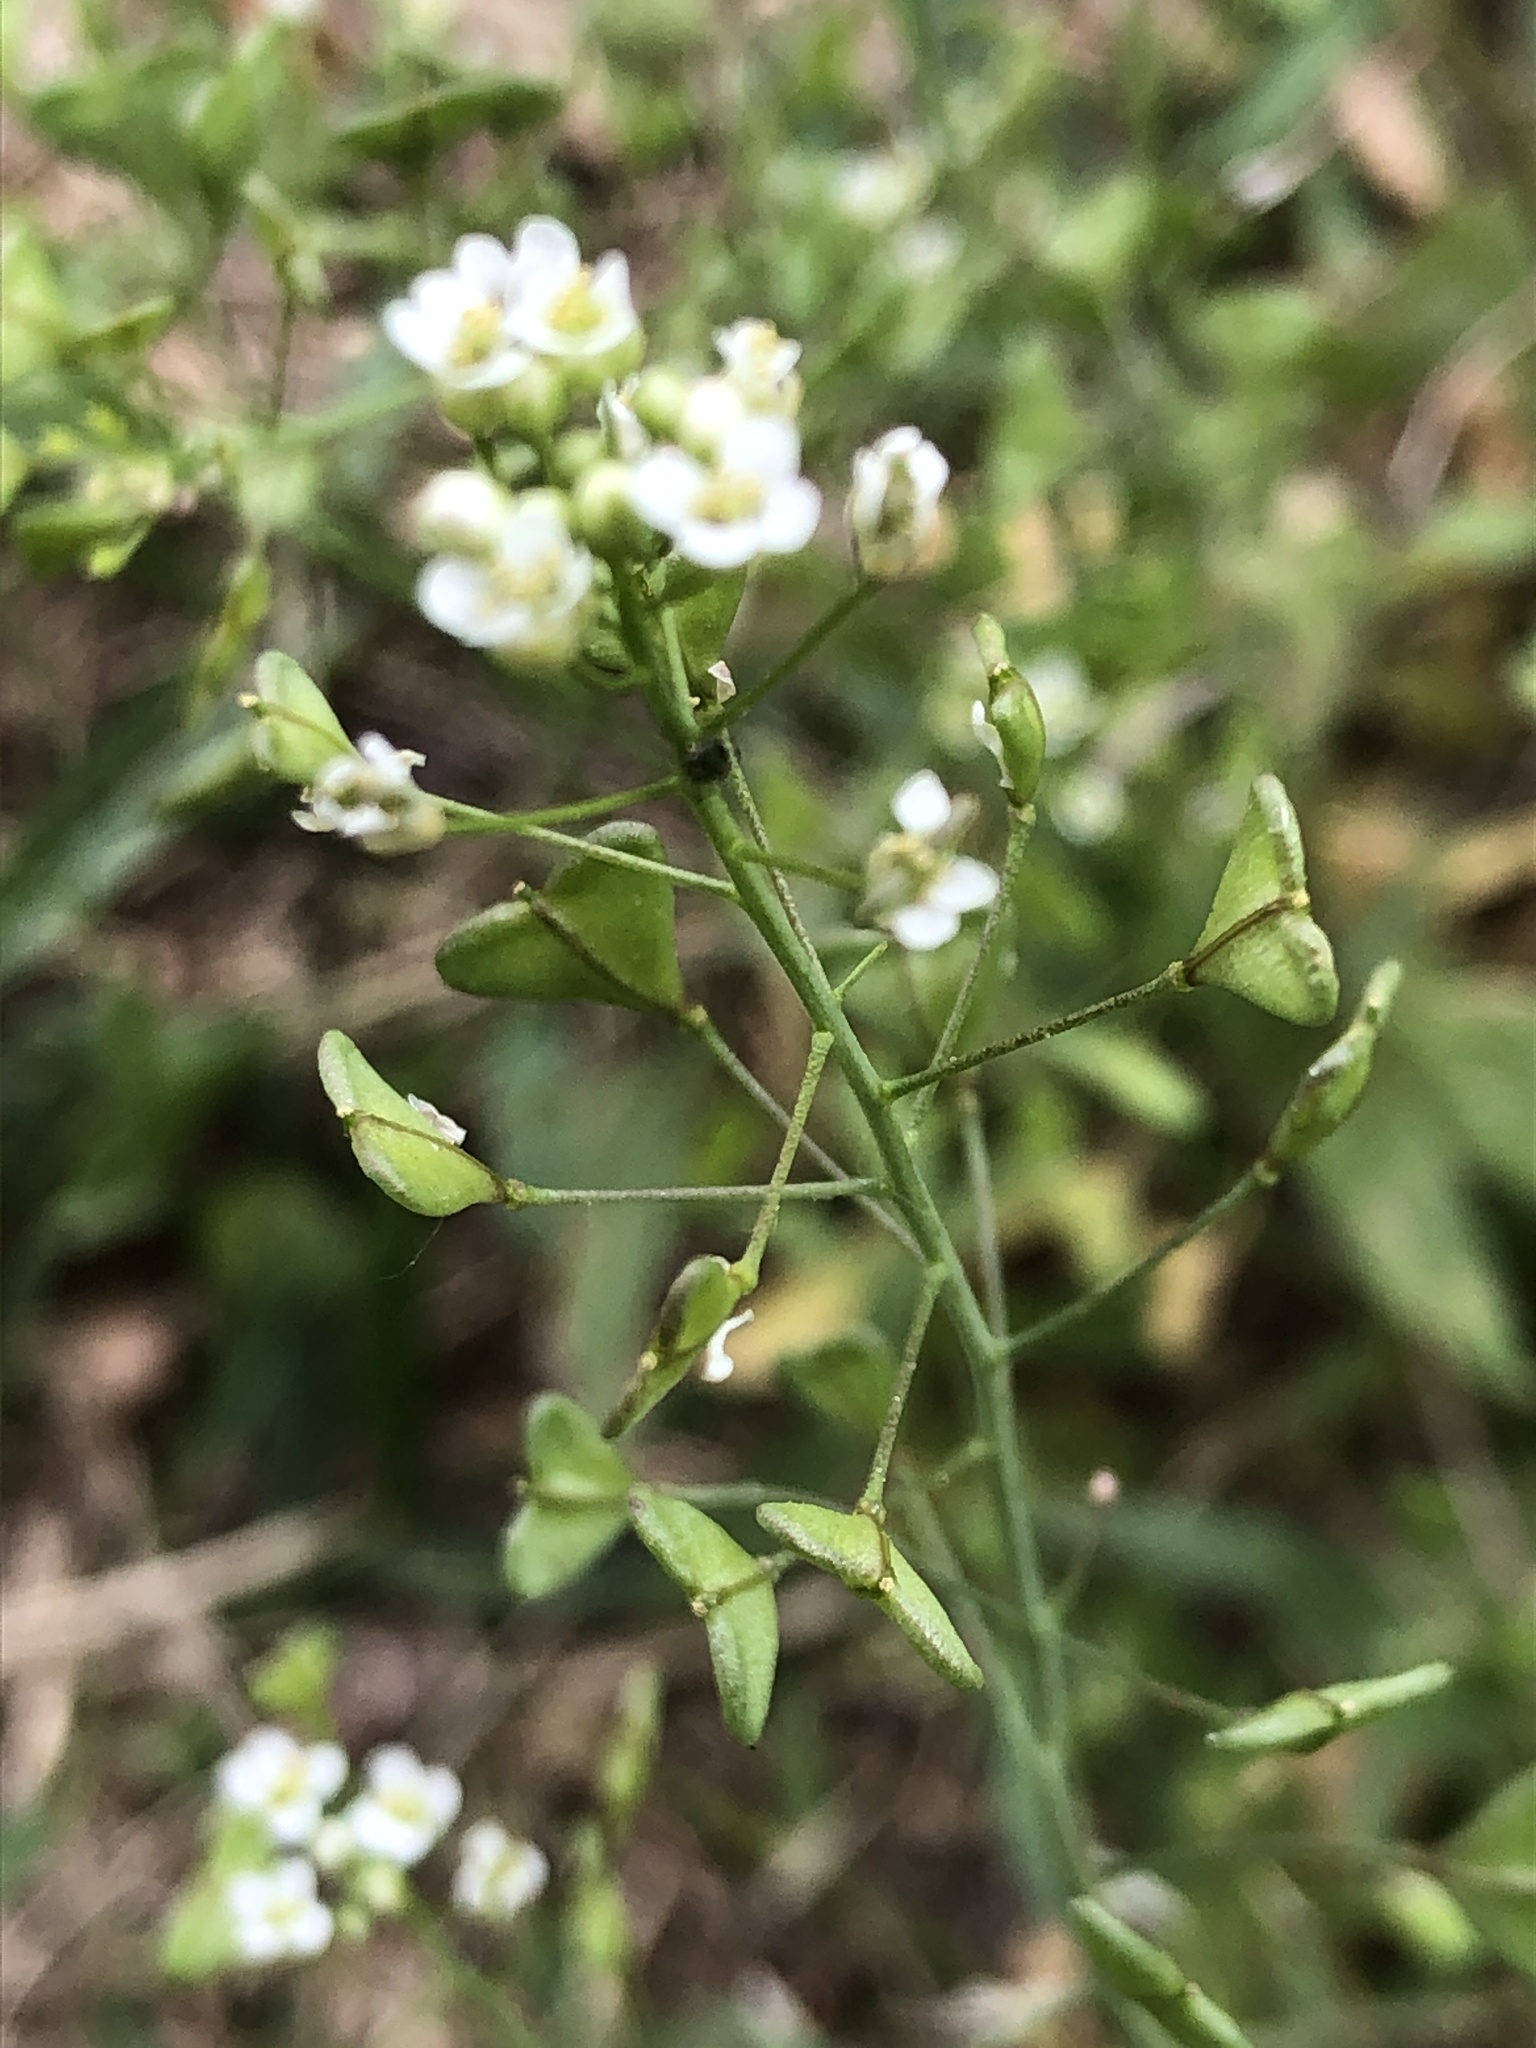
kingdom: Plantae
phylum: Tracheophyta
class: Magnoliopsida
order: Brassicales
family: Brassicaceae
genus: Capsella
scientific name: Capsella bursa-pastoris
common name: Shepherd's purse
